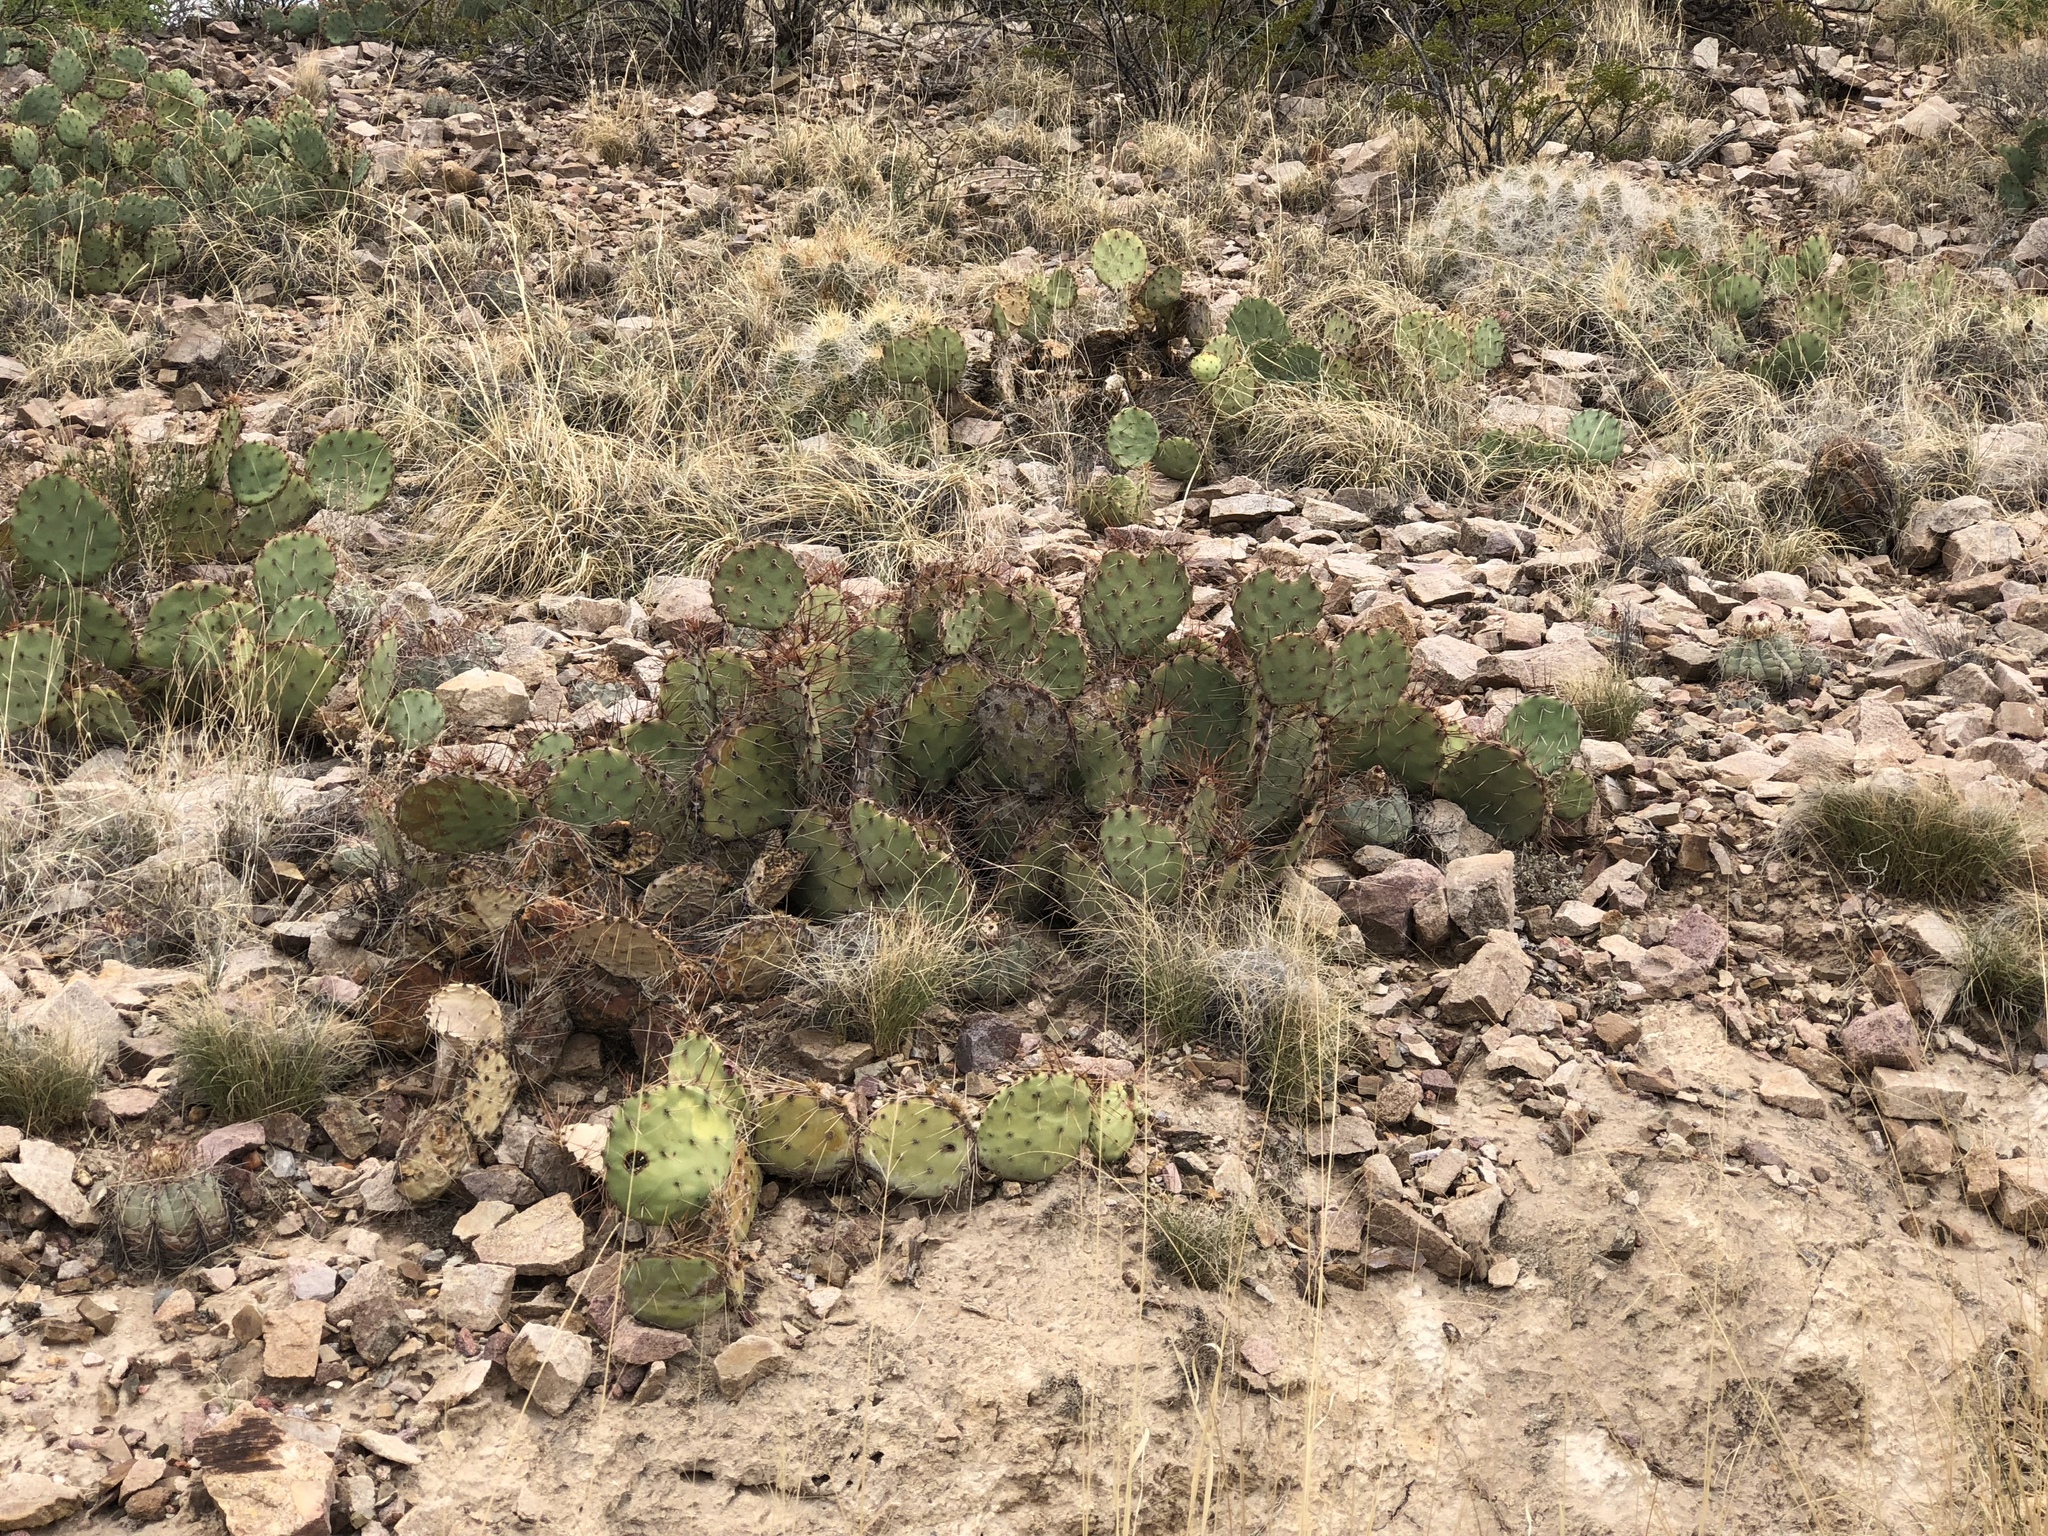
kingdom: Plantae
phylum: Tracheophyta
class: Magnoliopsida
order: Caryophyllales
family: Cactaceae
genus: Opuntia
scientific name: Opuntia phaeacantha
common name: New mexico prickly-pear
